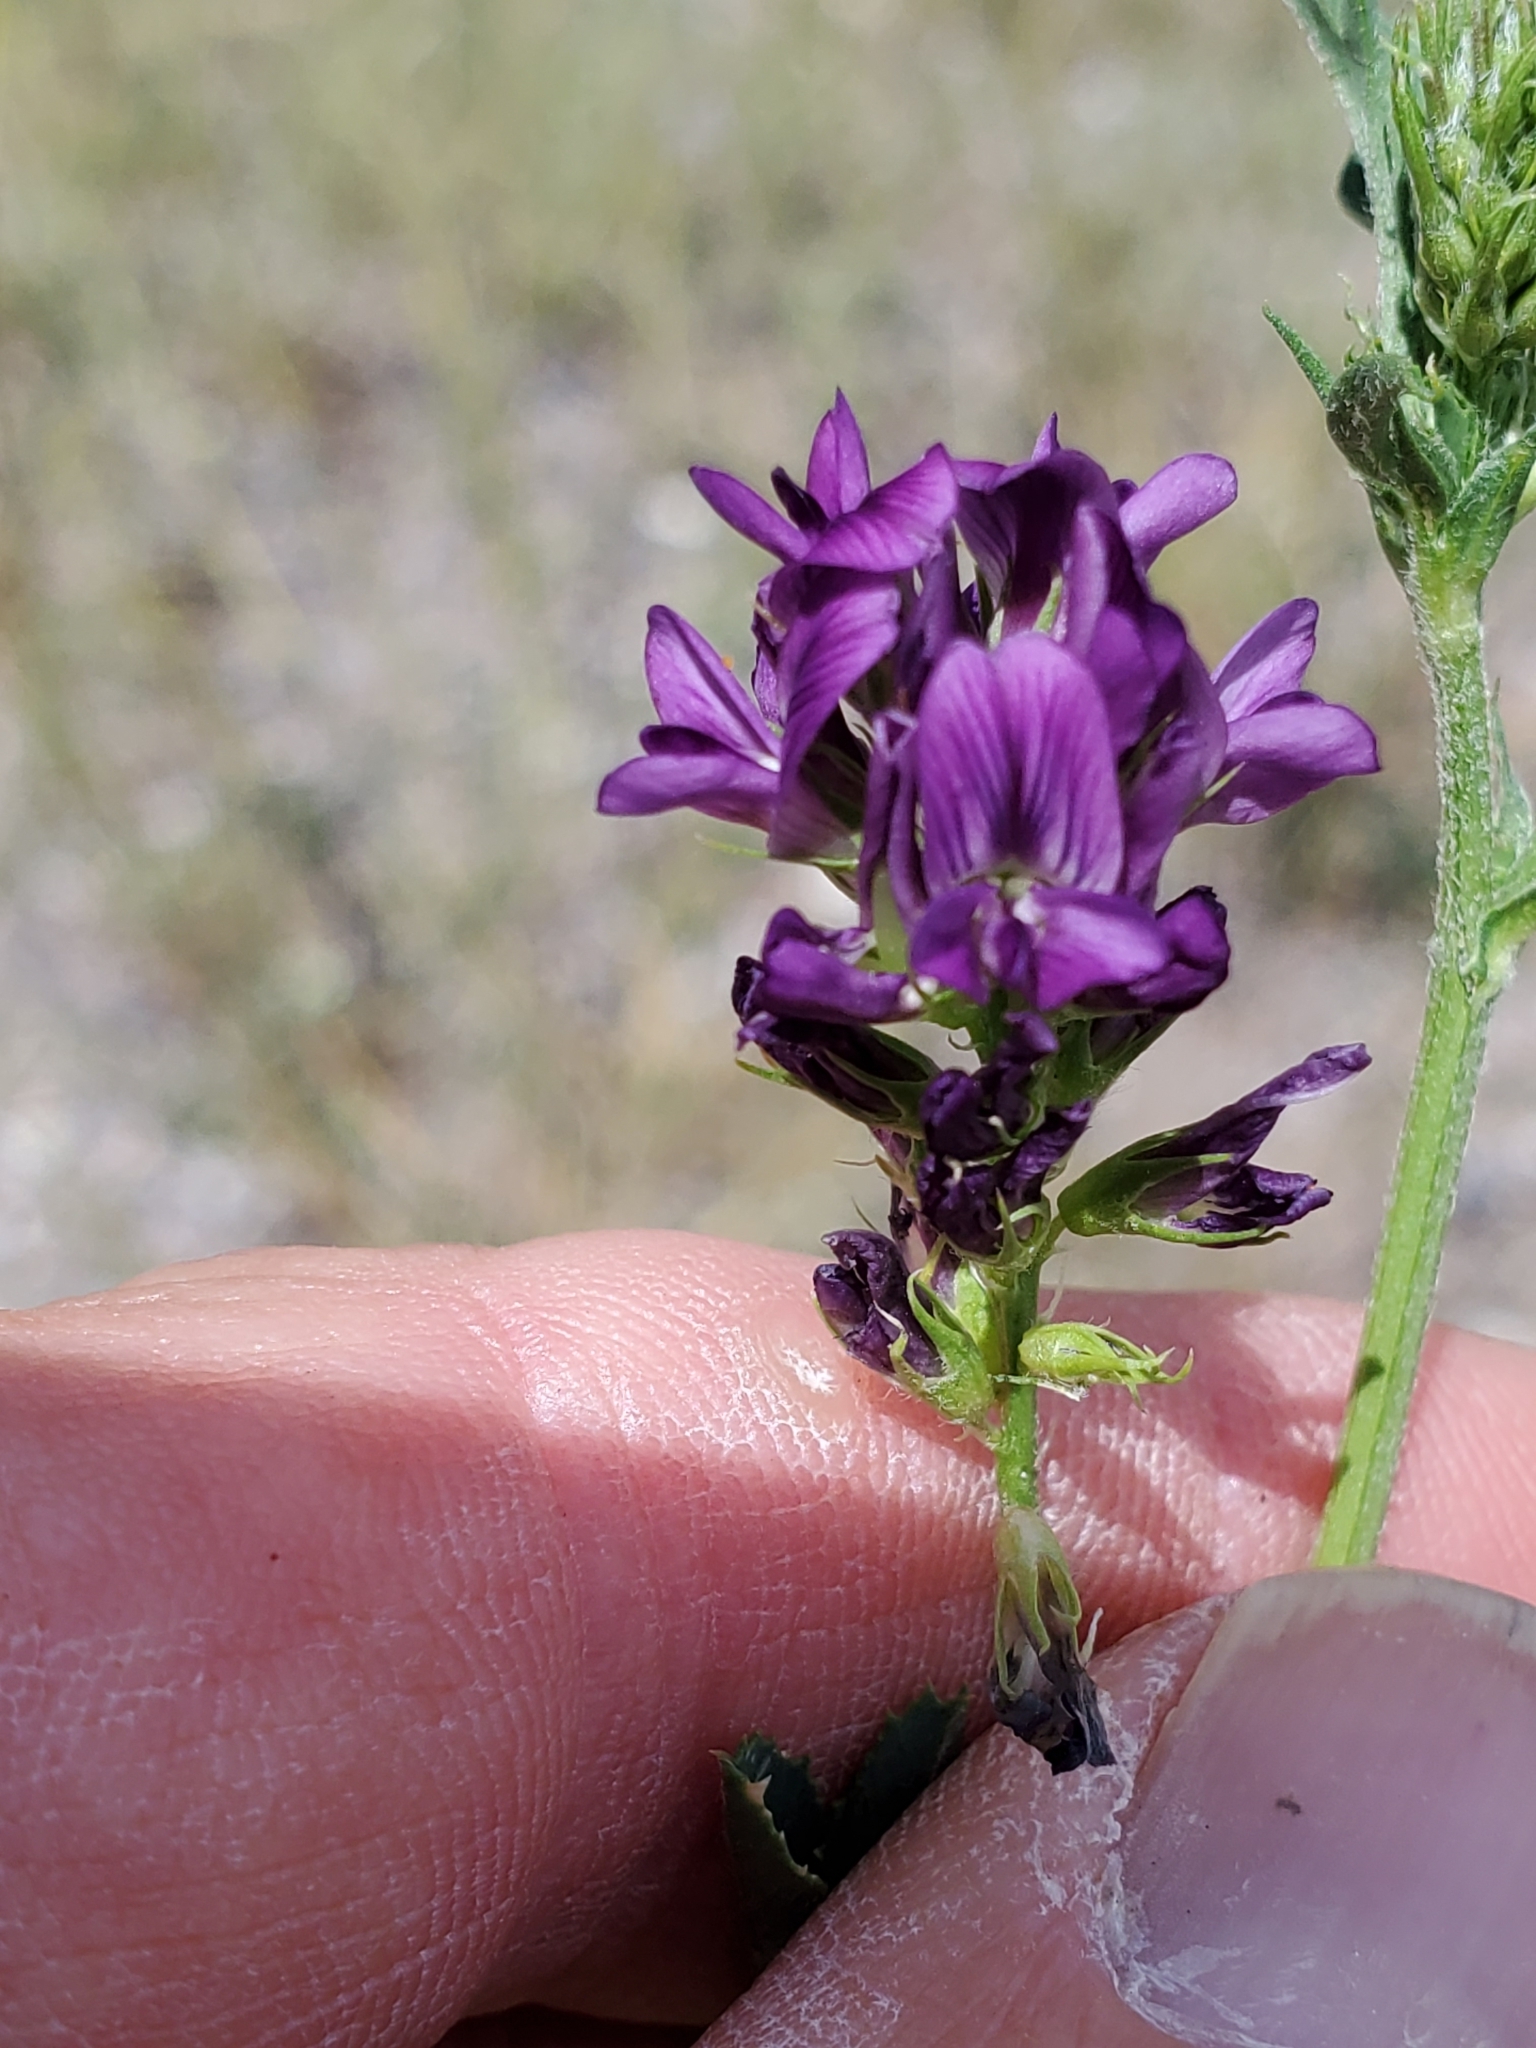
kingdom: Plantae
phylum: Tracheophyta
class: Magnoliopsida
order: Fabales
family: Fabaceae
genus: Medicago
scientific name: Medicago sativa
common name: Alfalfa
